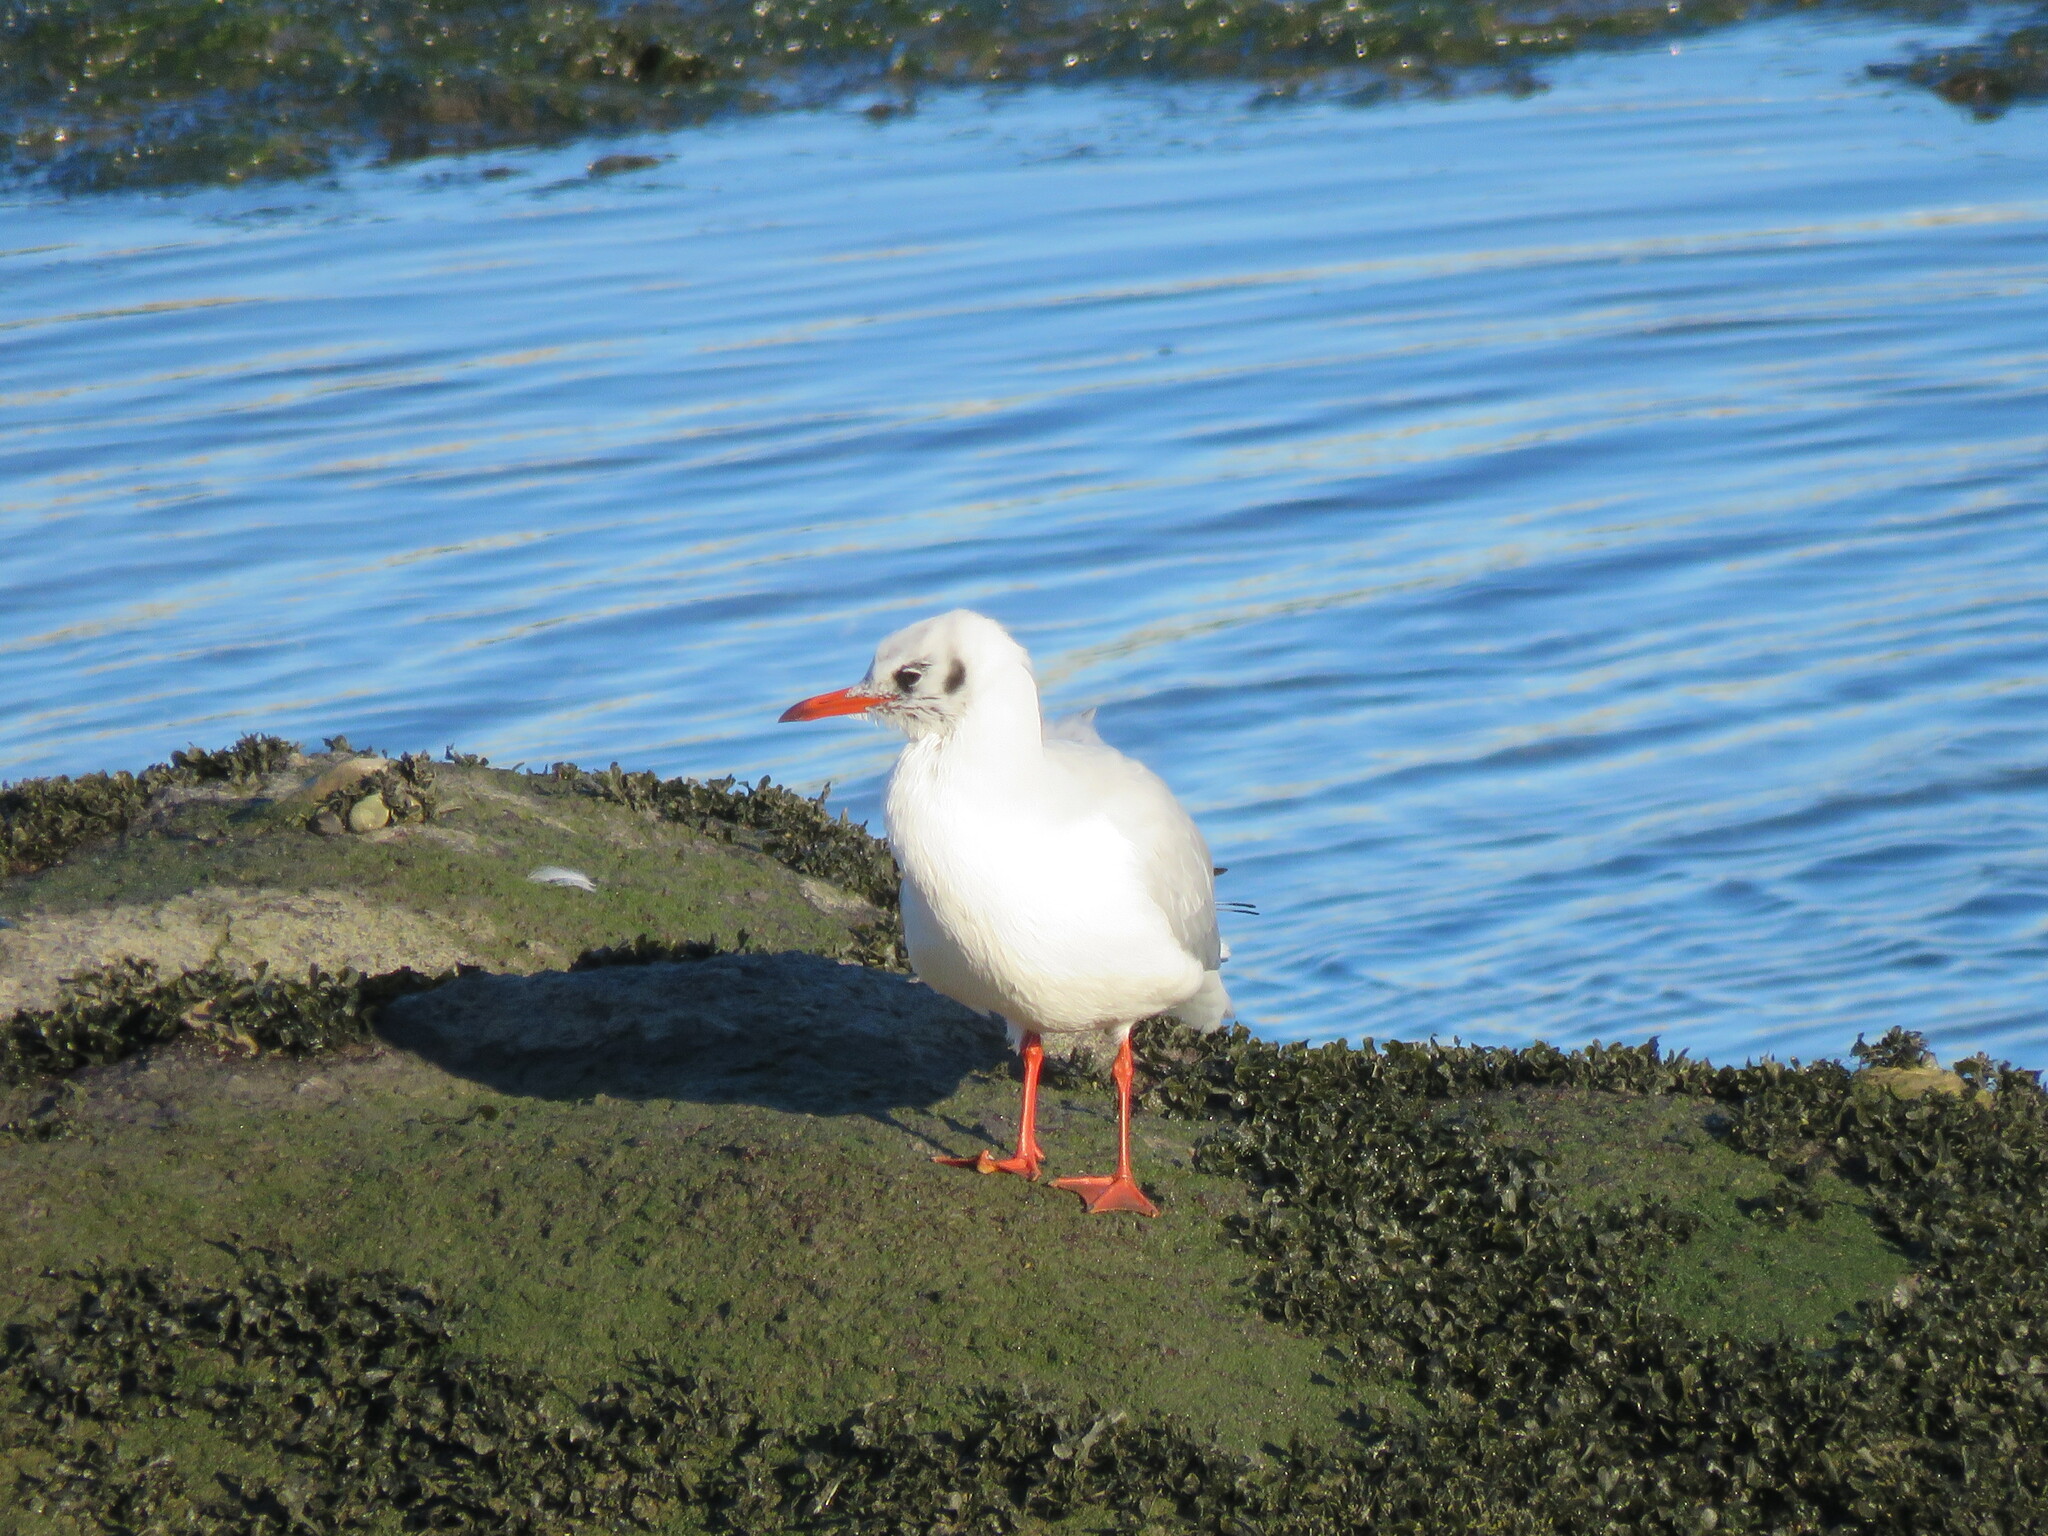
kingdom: Animalia
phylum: Chordata
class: Aves
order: Charadriiformes
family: Laridae
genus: Chroicocephalus
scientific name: Chroicocephalus ridibundus
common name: Black-headed gull
